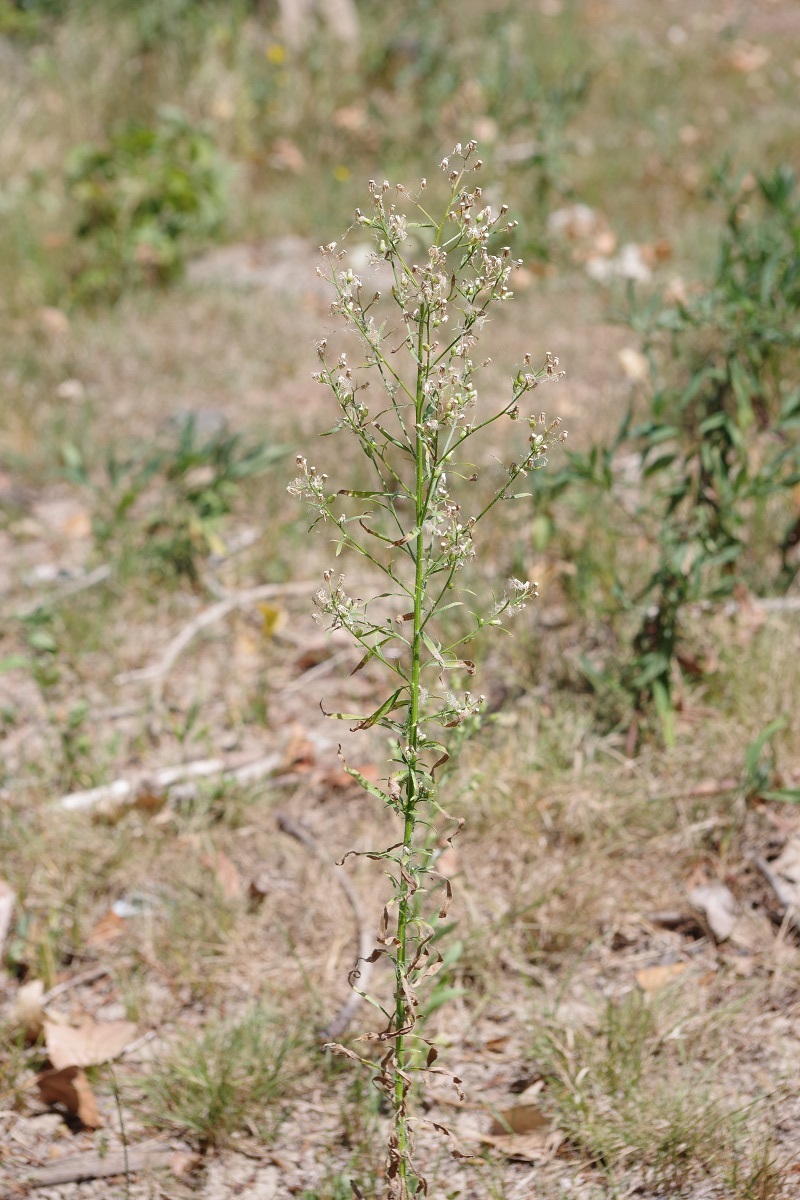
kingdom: Plantae
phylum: Tracheophyta
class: Magnoliopsida
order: Asterales
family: Asteraceae
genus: Erigeron
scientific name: Erigeron canadensis
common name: Canadian fleabane
